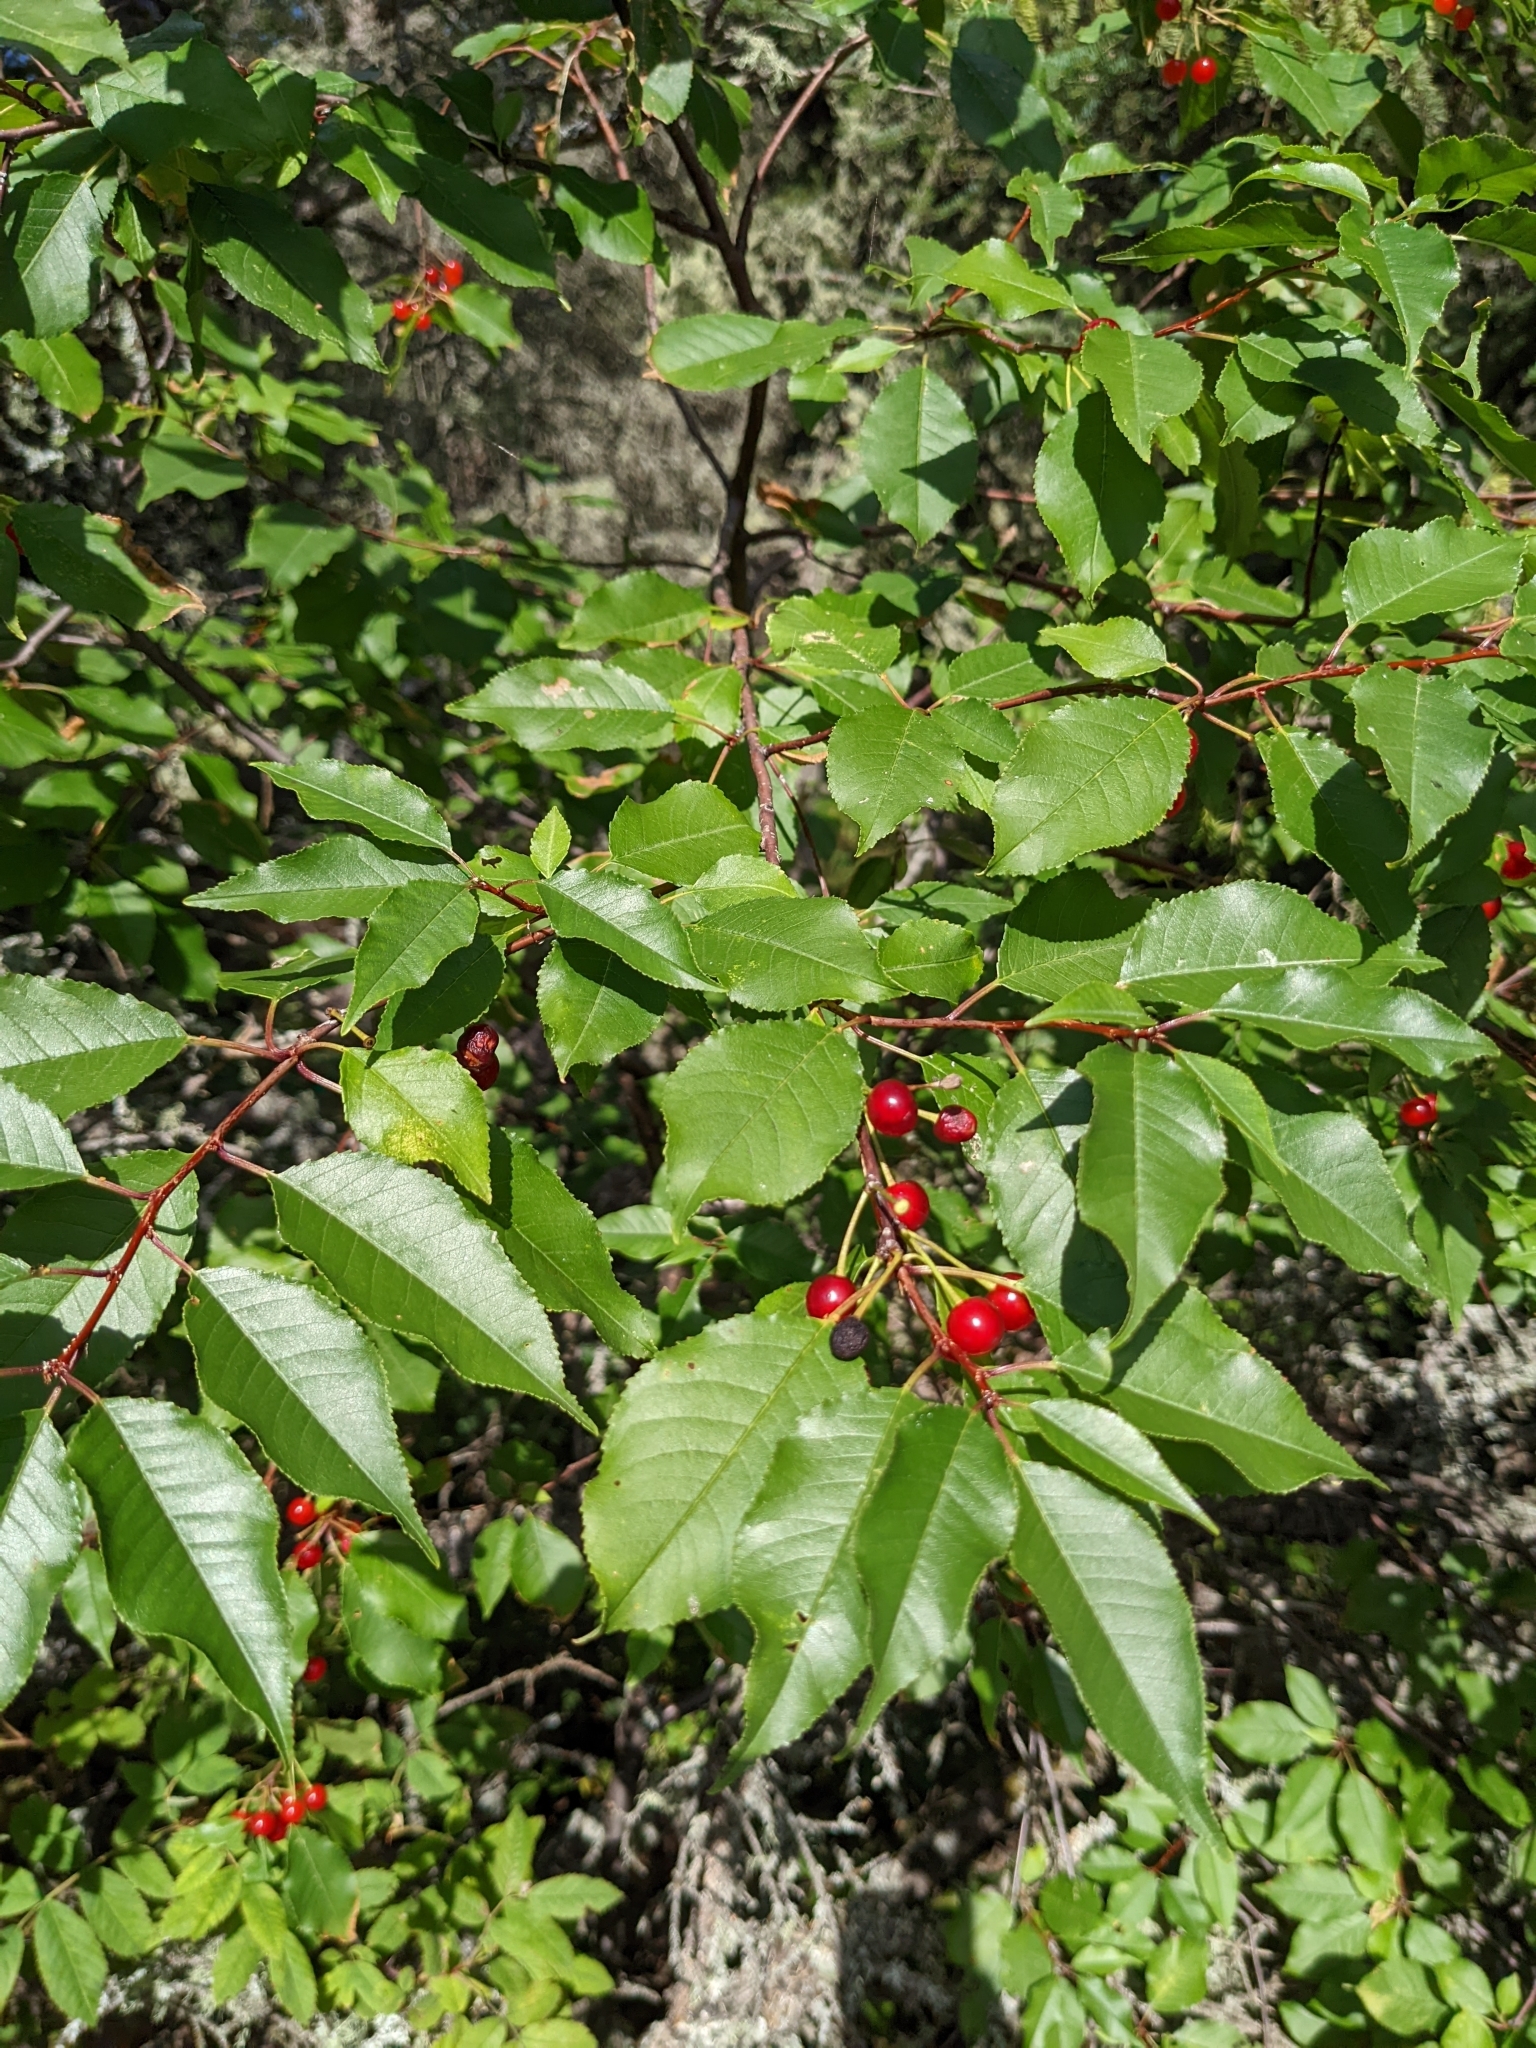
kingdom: Plantae
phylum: Tracheophyta
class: Magnoliopsida
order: Rosales
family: Rosaceae
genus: Prunus
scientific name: Prunus pensylvanica
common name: Pin cherry
